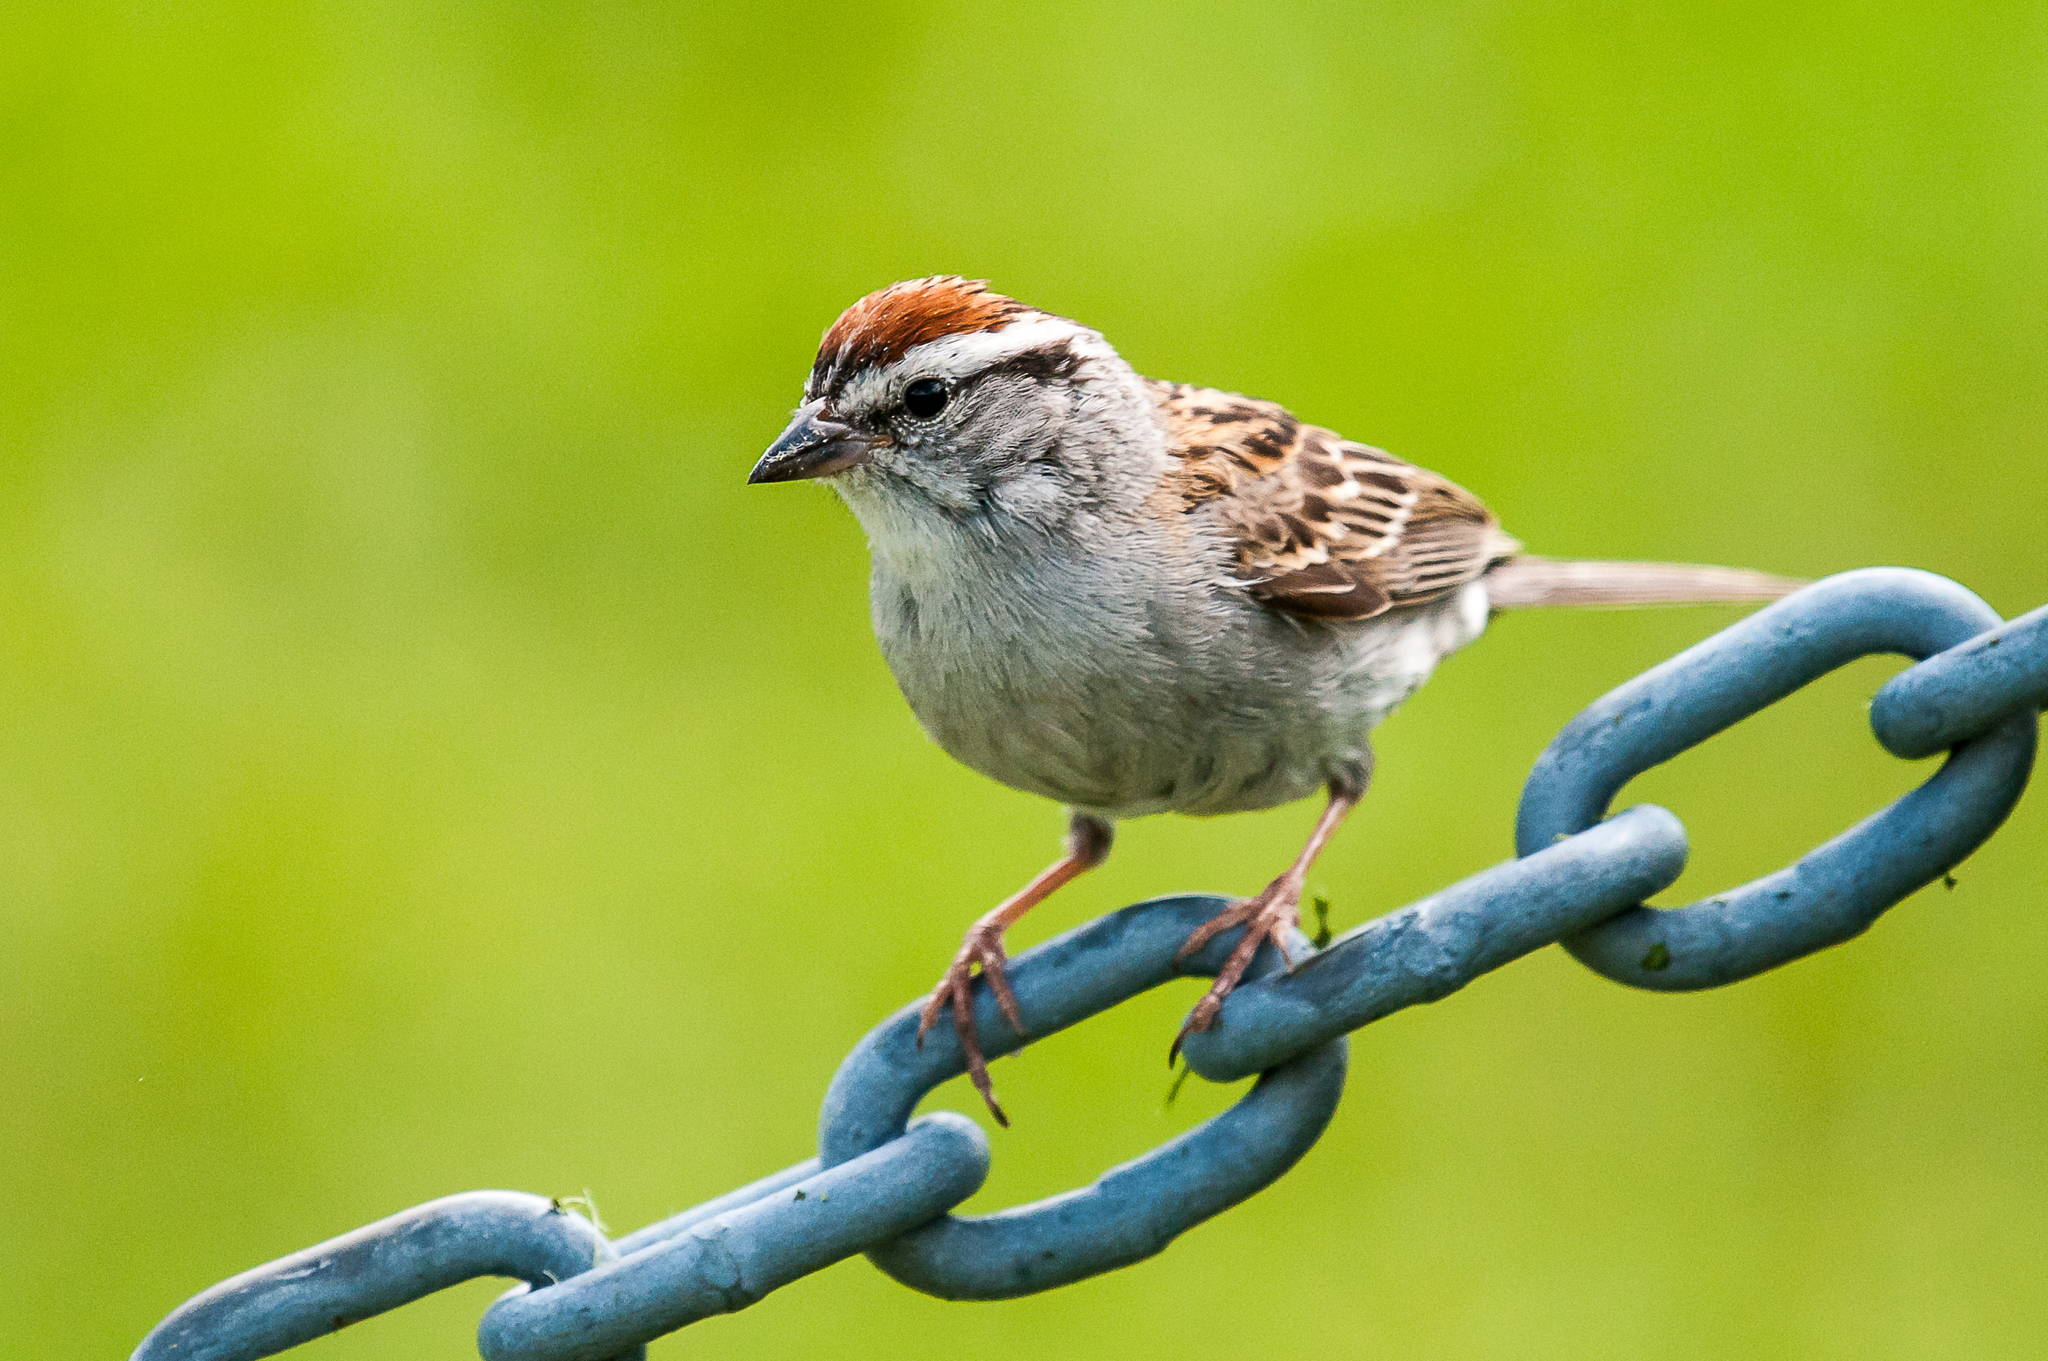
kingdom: Animalia
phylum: Chordata
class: Aves
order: Passeriformes
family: Passerellidae
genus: Spizella
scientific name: Spizella passerina
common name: Chipping sparrow
